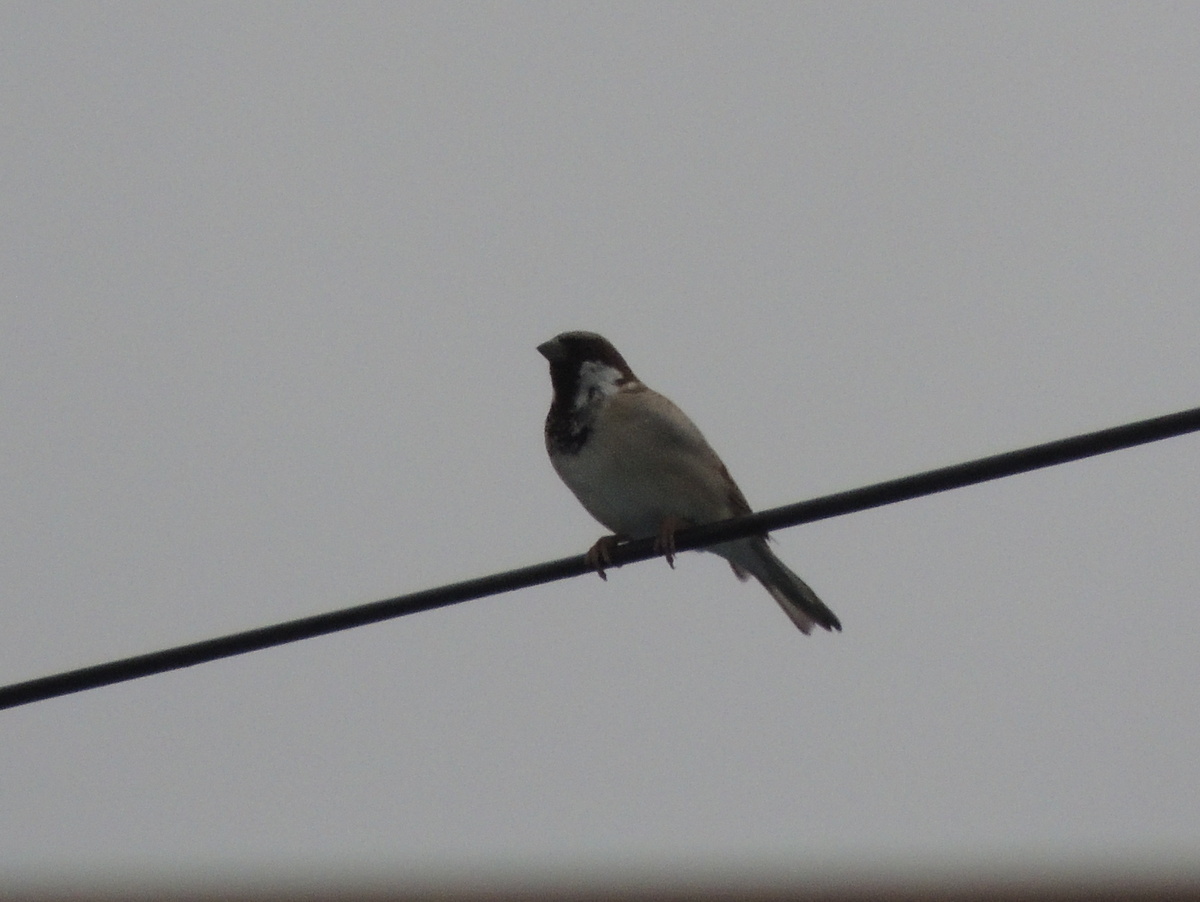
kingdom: Animalia
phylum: Chordata
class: Aves
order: Passeriformes
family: Passeridae
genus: Passer
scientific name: Passer domesticus
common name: House sparrow
